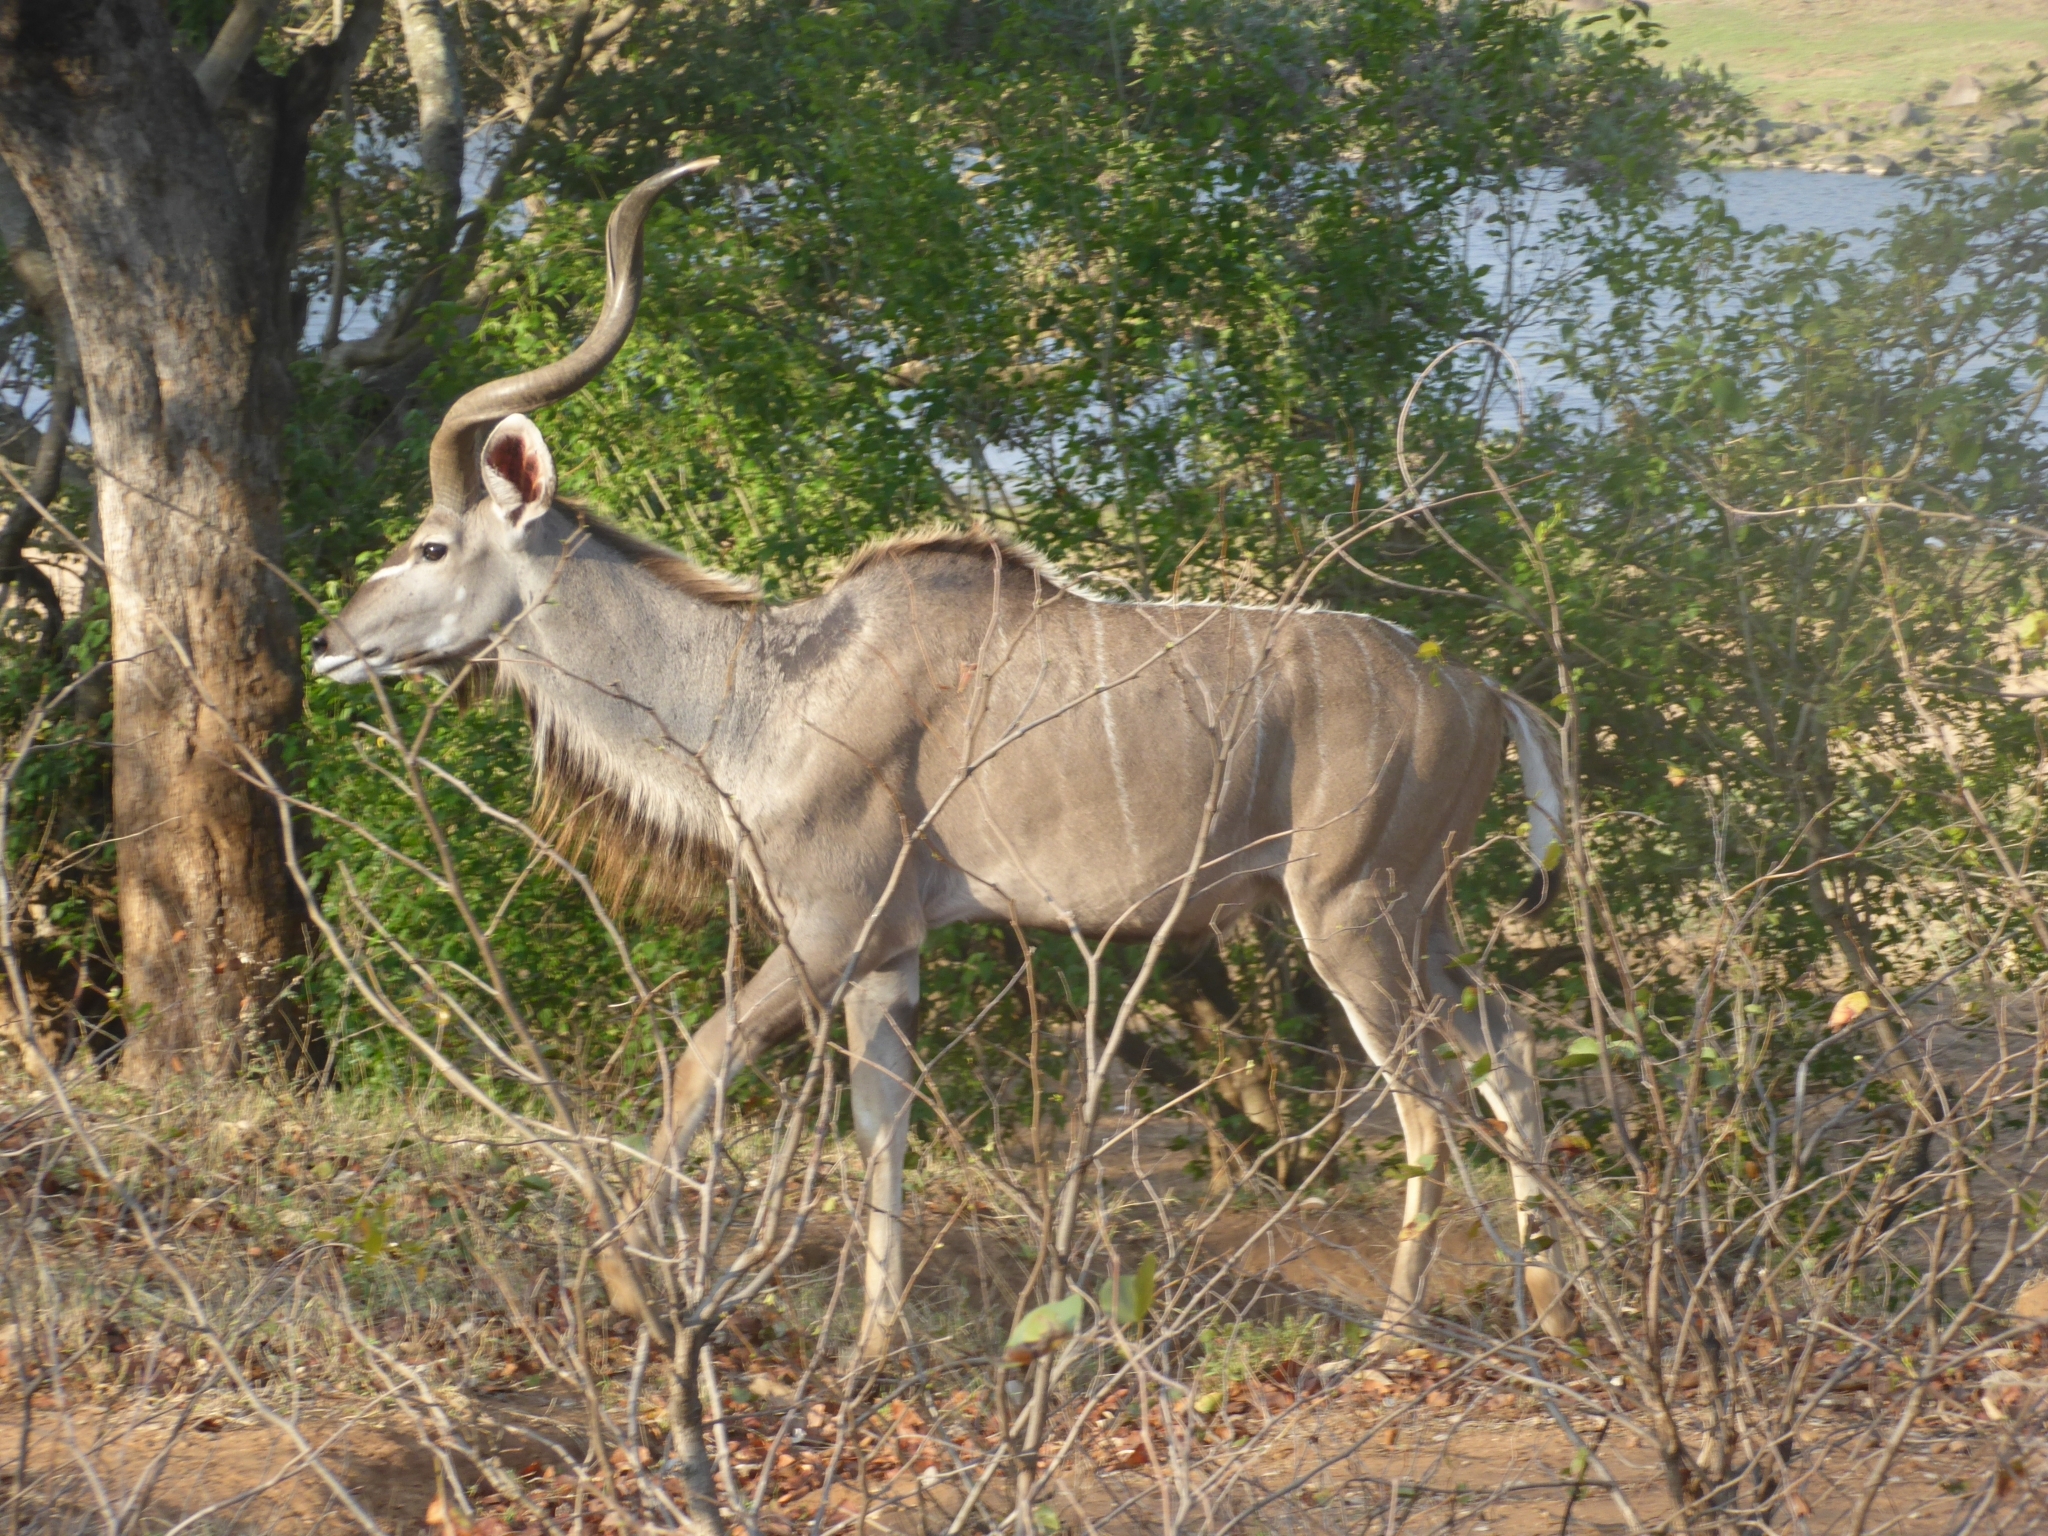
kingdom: Animalia
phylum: Chordata
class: Mammalia
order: Artiodactyla
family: Bovidae
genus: Tragelaphus
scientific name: Tragelaphus strepsiceros
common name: Greater kudu
